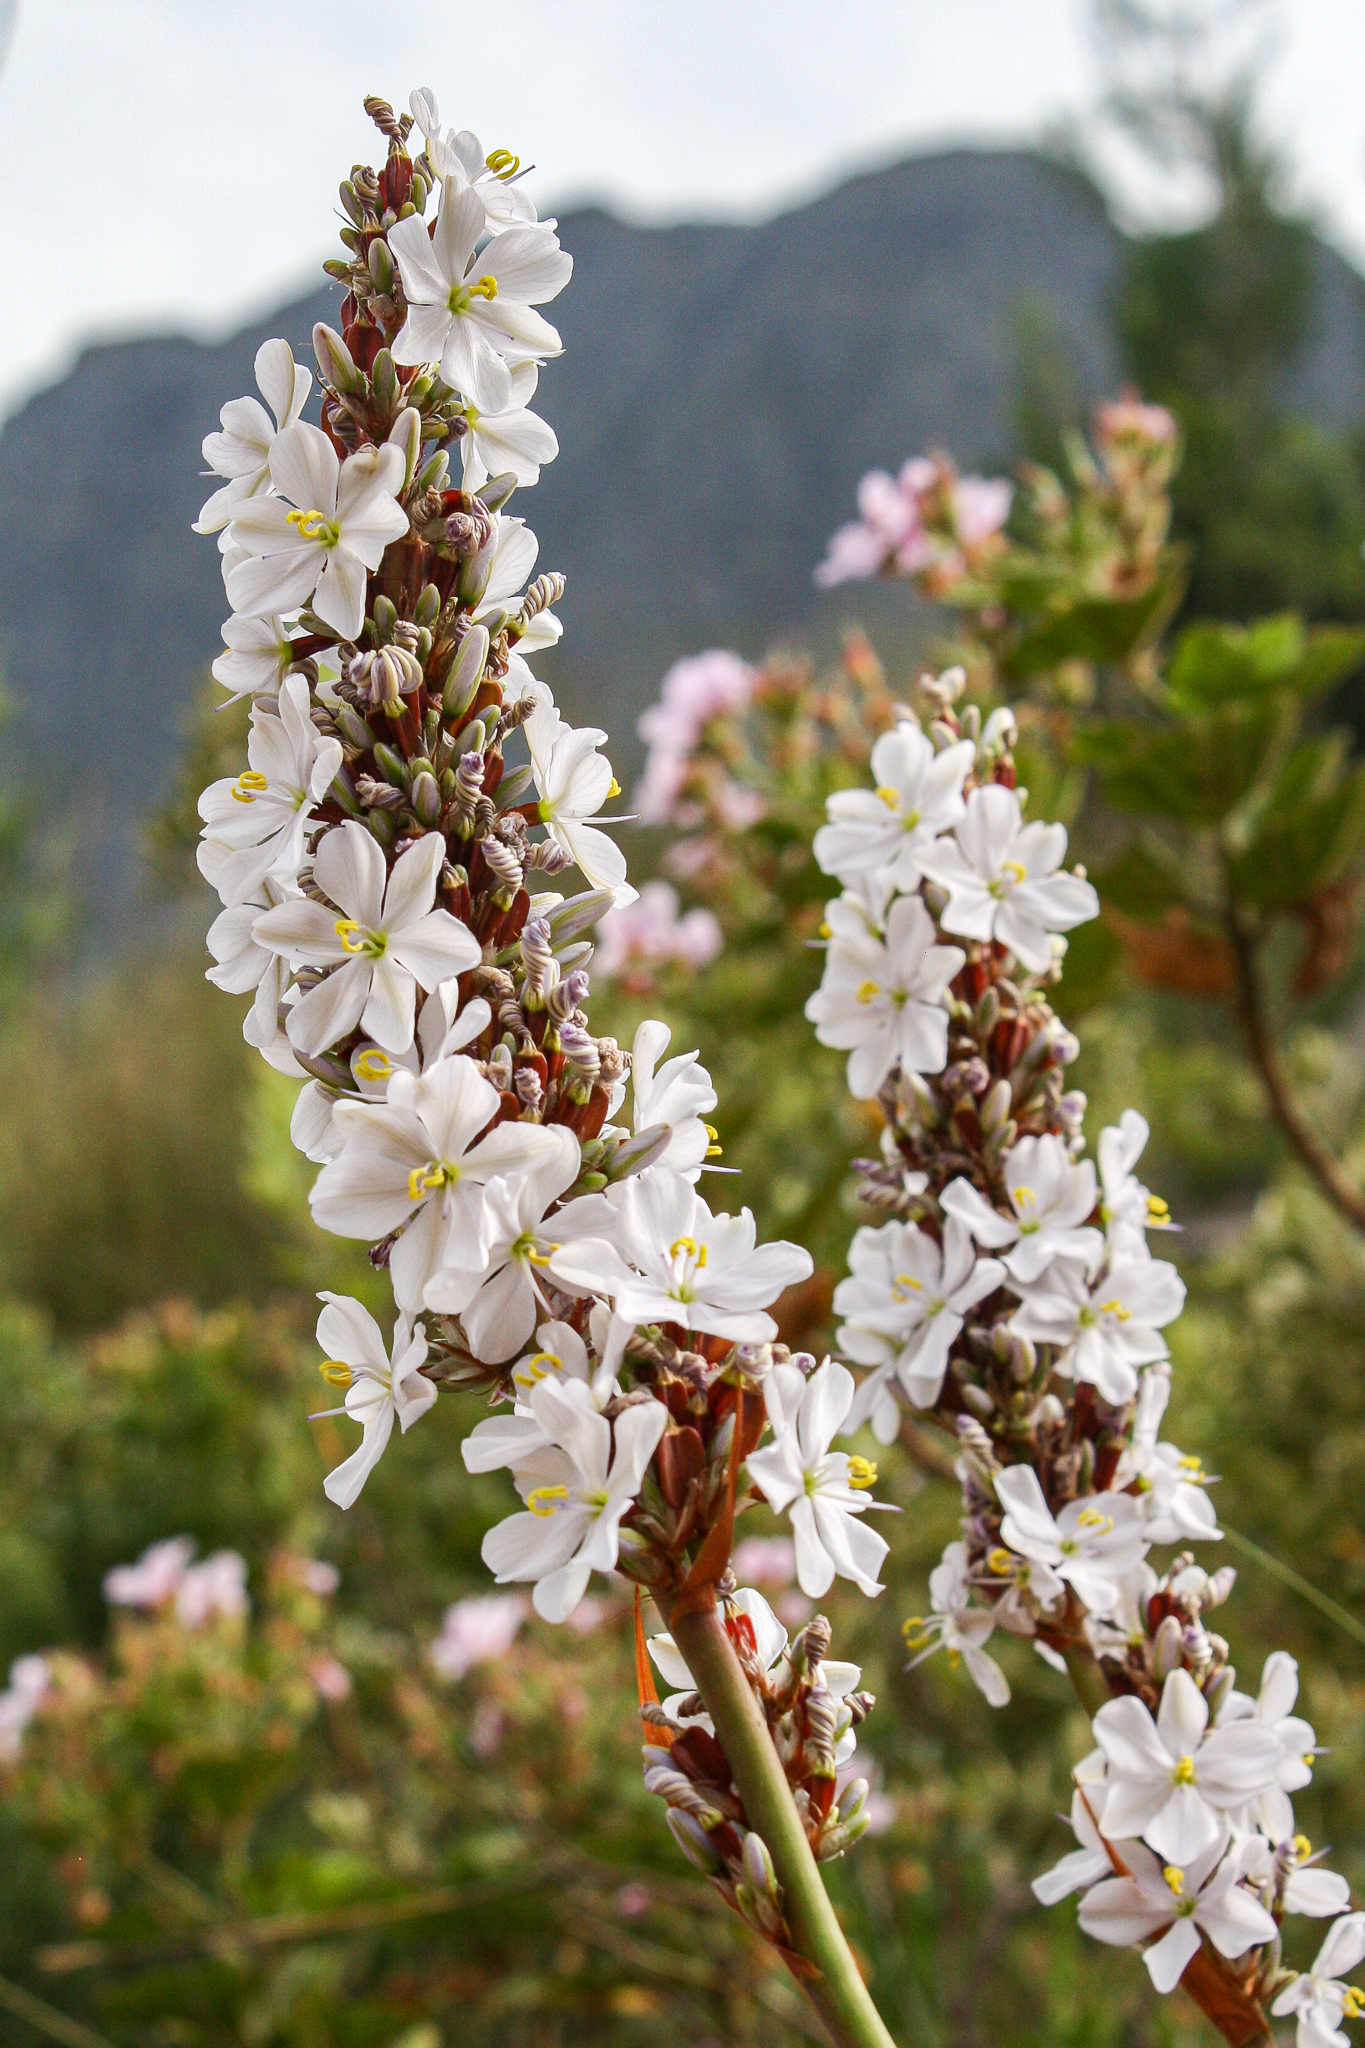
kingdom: Plantae
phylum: Tracheophyta
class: Liliopsida
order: Asparagales
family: Iridaceae
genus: Aristea
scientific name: Aristea capitata
